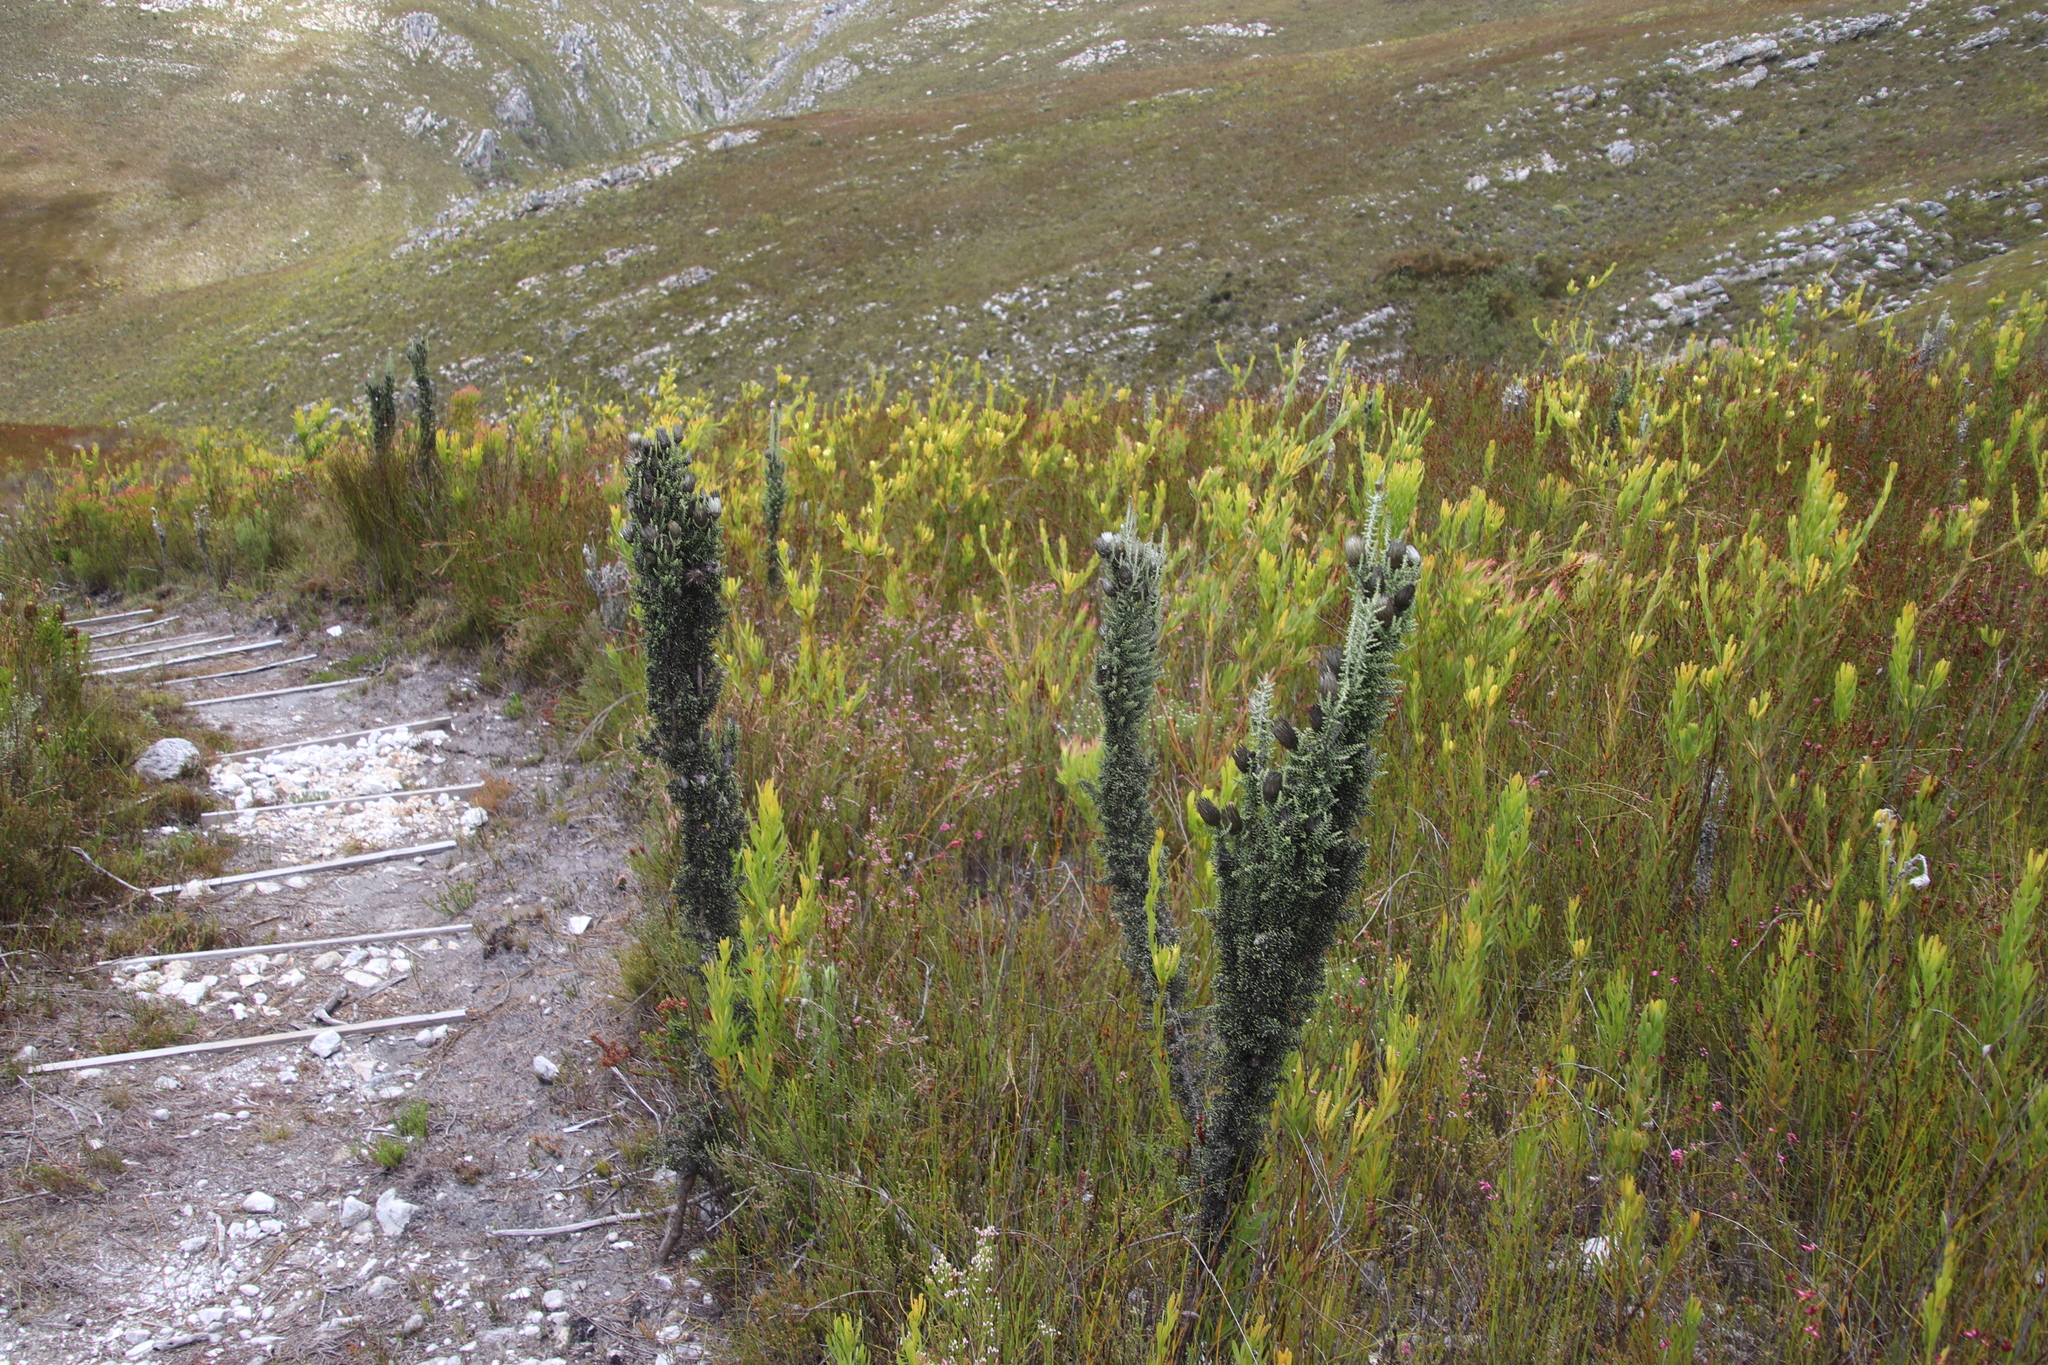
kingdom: Plantae
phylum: Tracheophyta
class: Magnoliopsida
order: Asterales
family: Asteraceae
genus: Phaenocoma
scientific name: Phaenocoma prolifera
